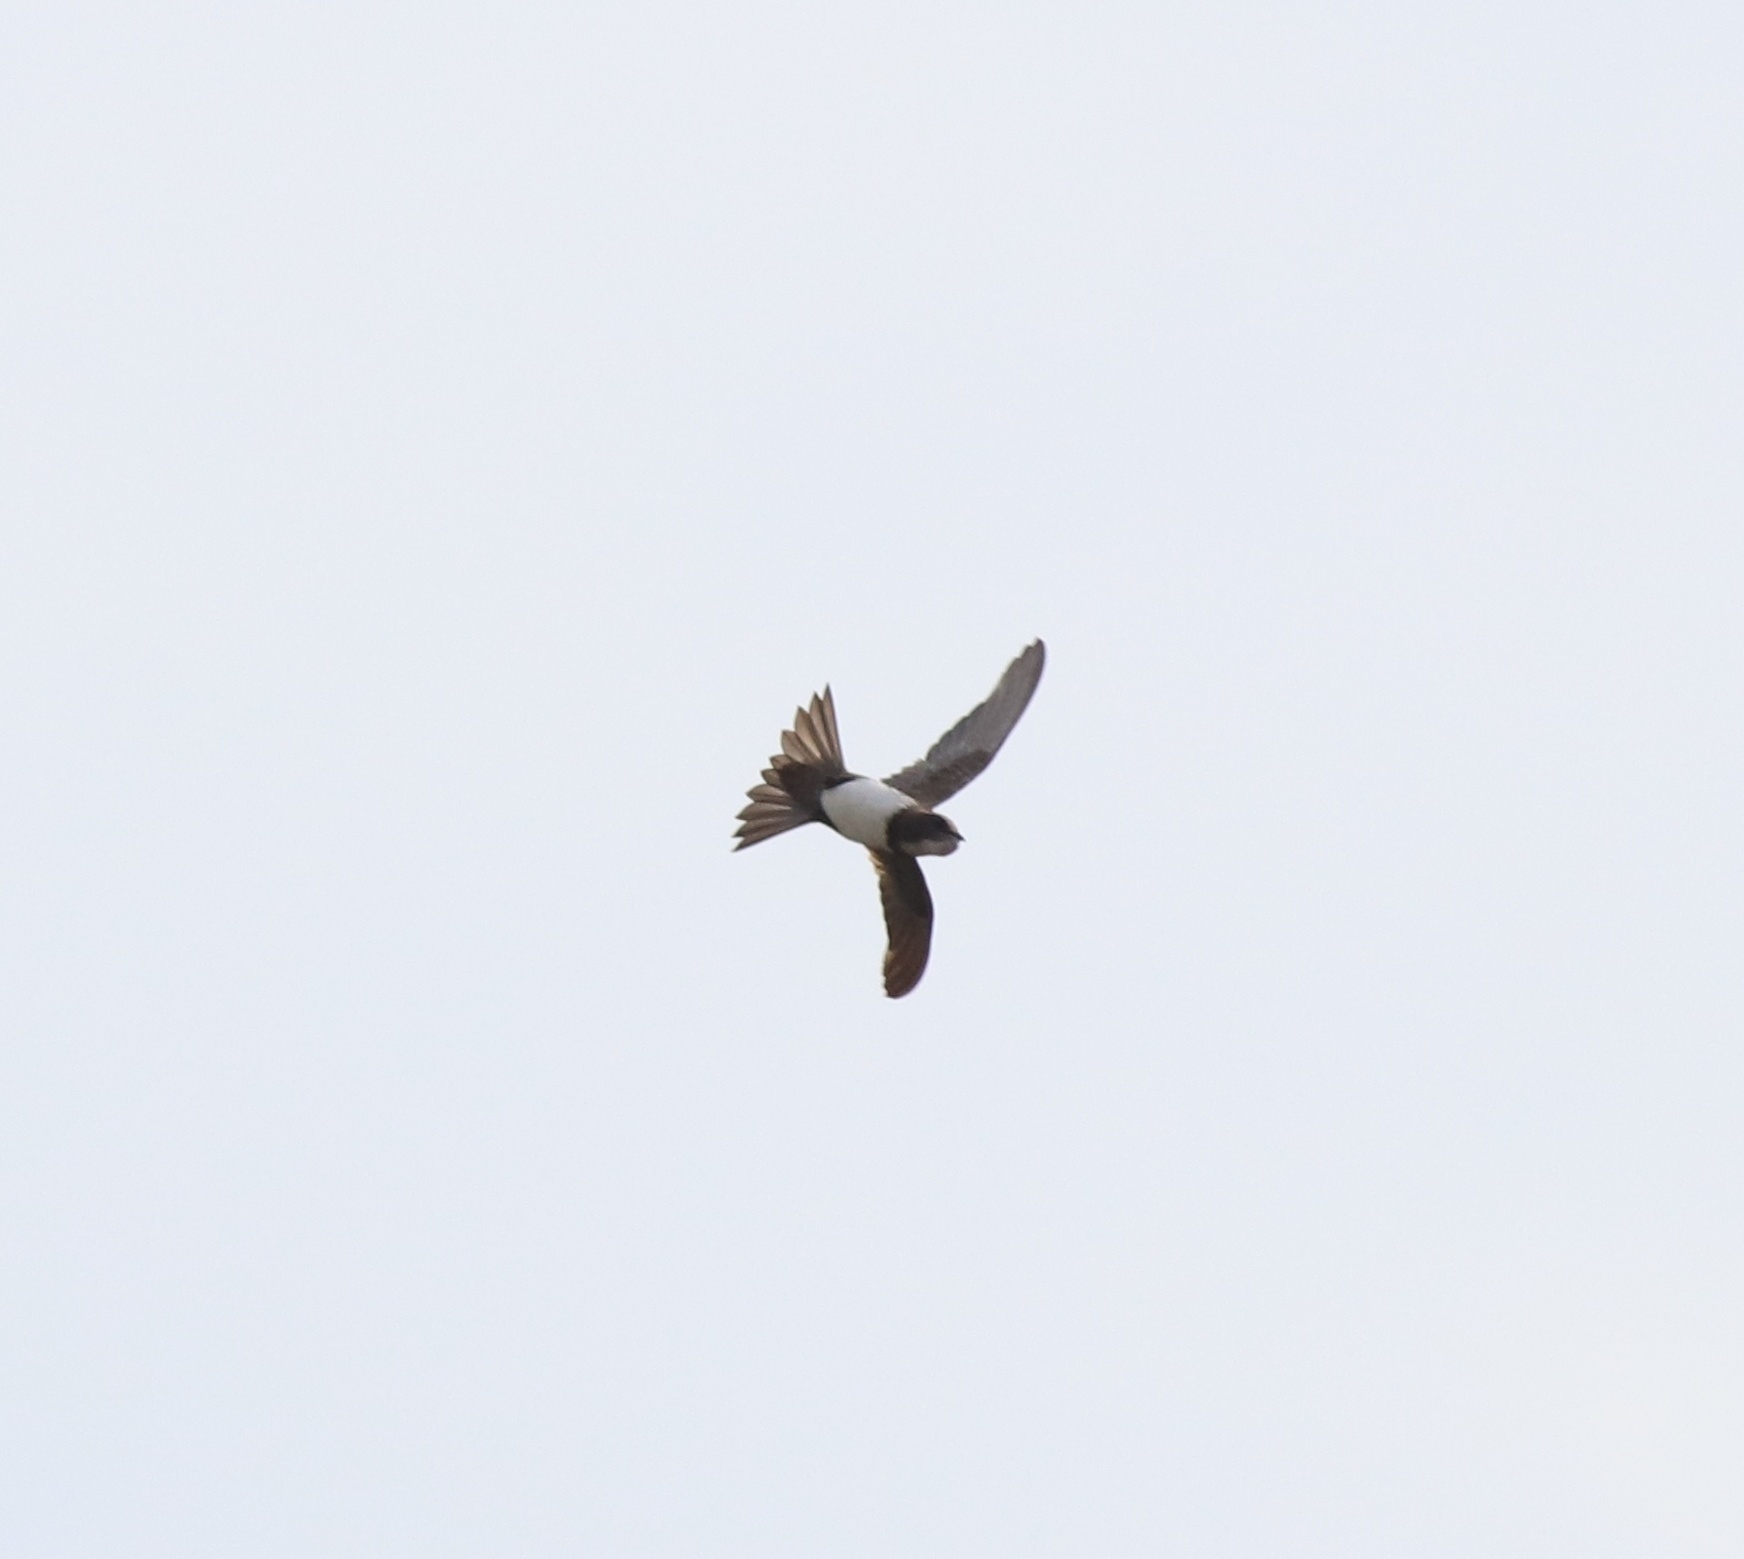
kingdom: Animalia
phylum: Chordata
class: Aves
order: Apodiformes
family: Apodidae
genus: Tachymarptis
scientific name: Tachymarptis melba
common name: Alpine swift
